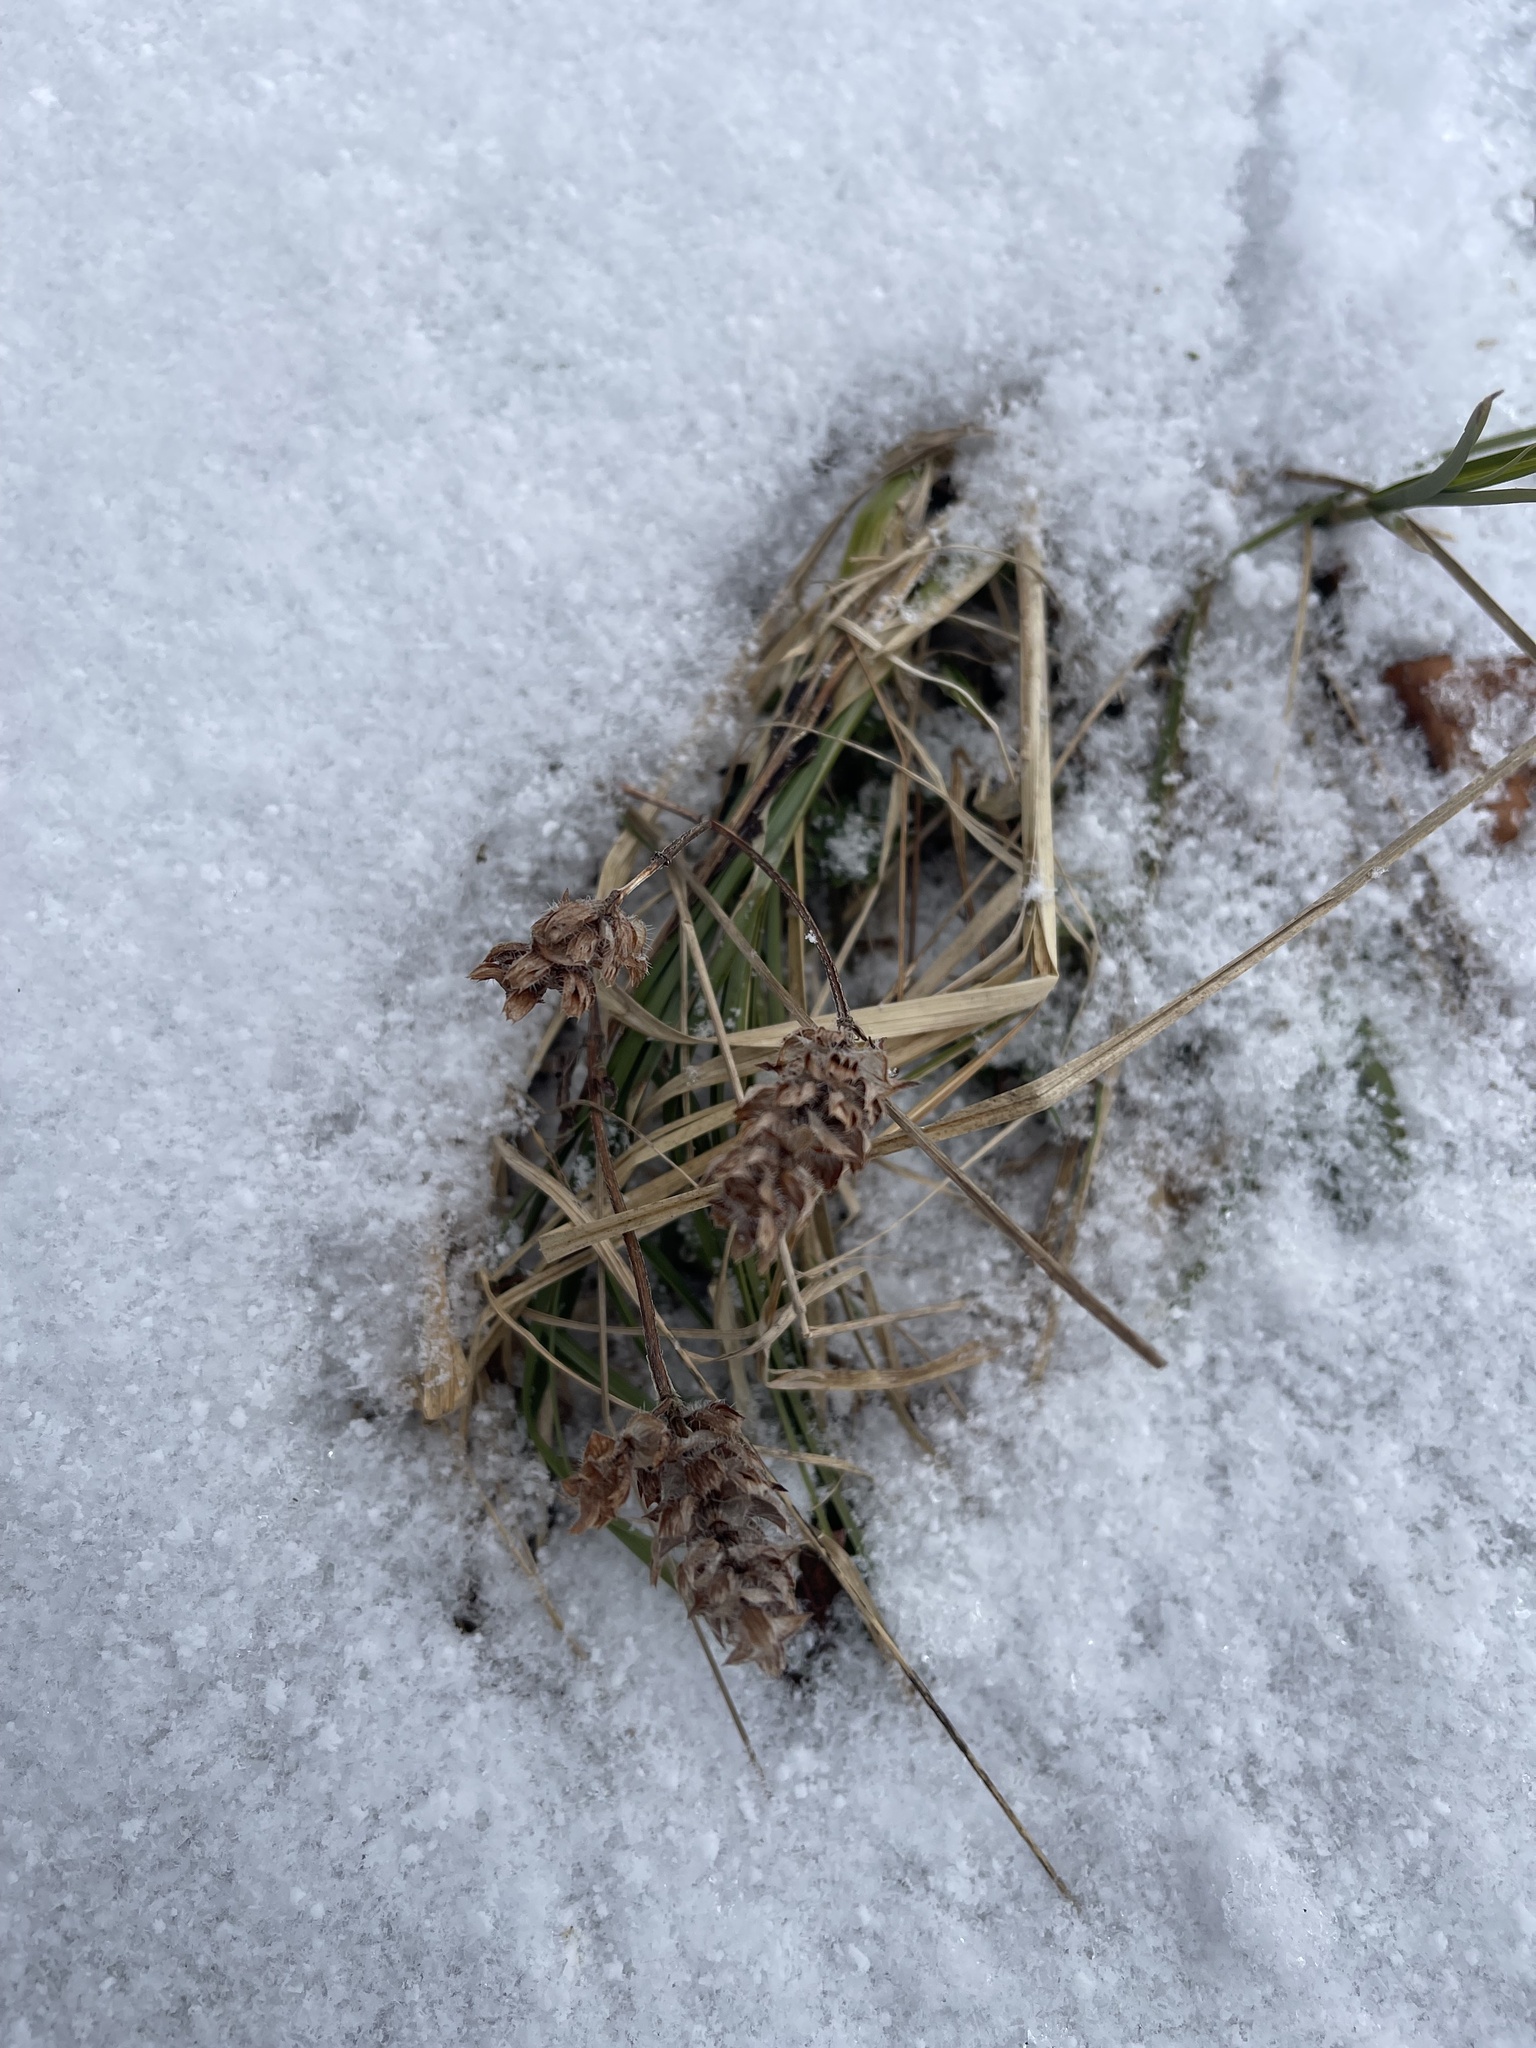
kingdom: Plantae
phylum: Tracheophyta
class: Magnoliopsida
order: Lamiales
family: Lamiaceae
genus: Prunella
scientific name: Prunella vulgaris
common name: Heal-all
